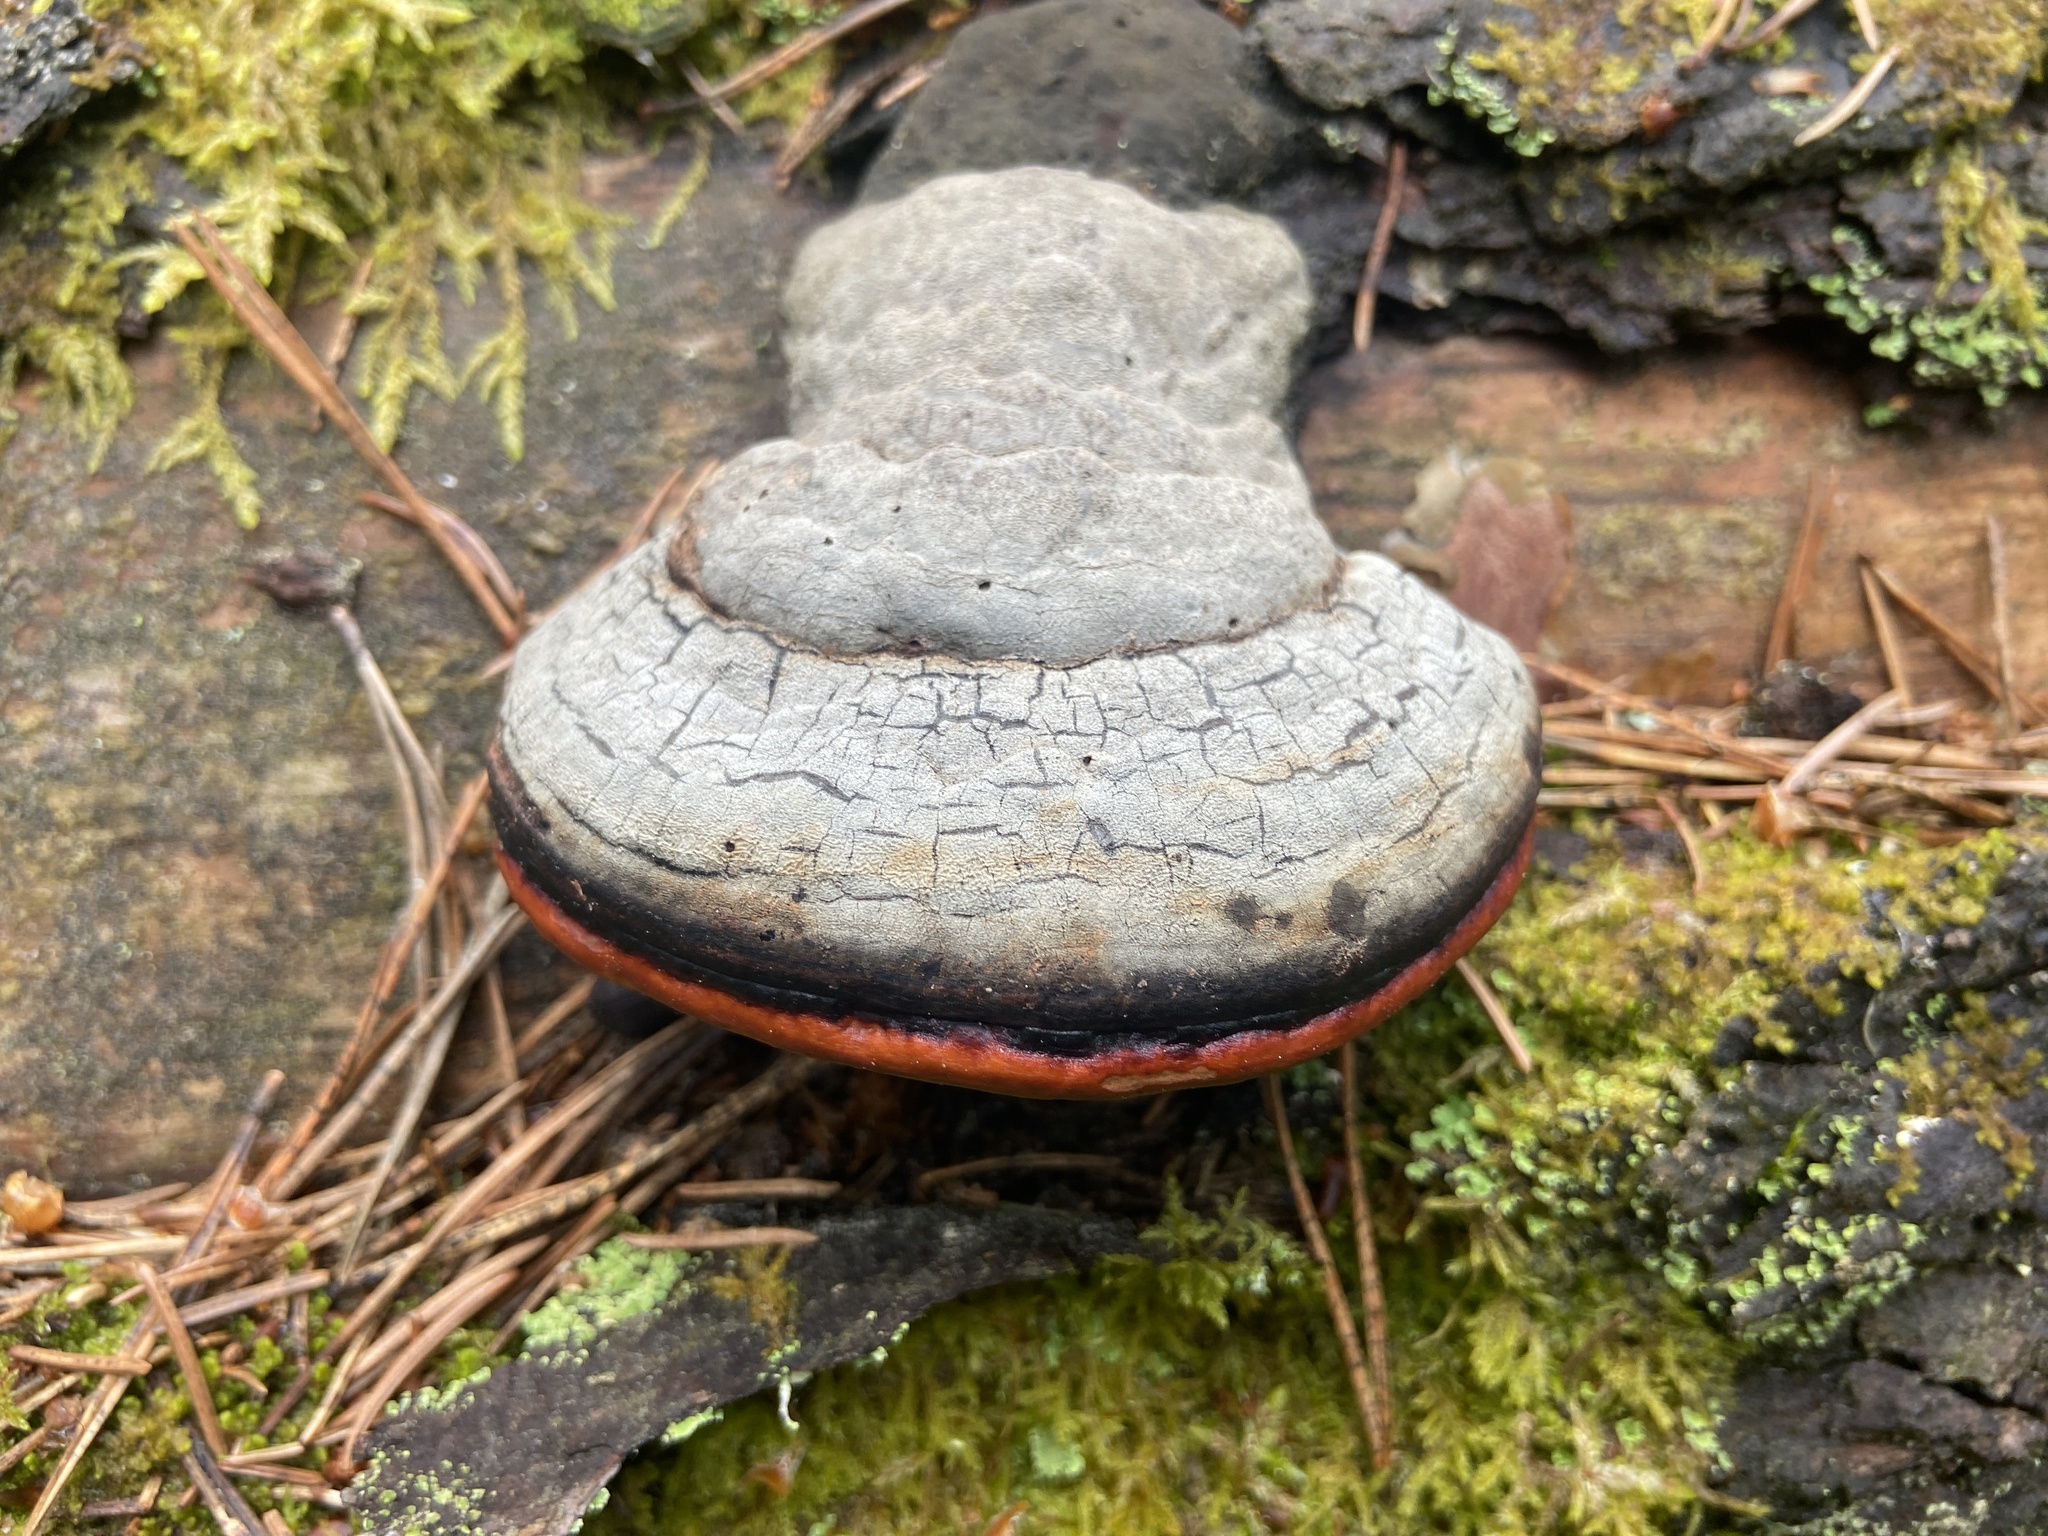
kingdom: Fungi
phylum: Basidiomycota
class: Agaricomycetes
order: Polyporales
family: Fomitopsidaceae
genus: Fomitopsis
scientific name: Fomitopsis pinicola
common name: Red-belted bracket
